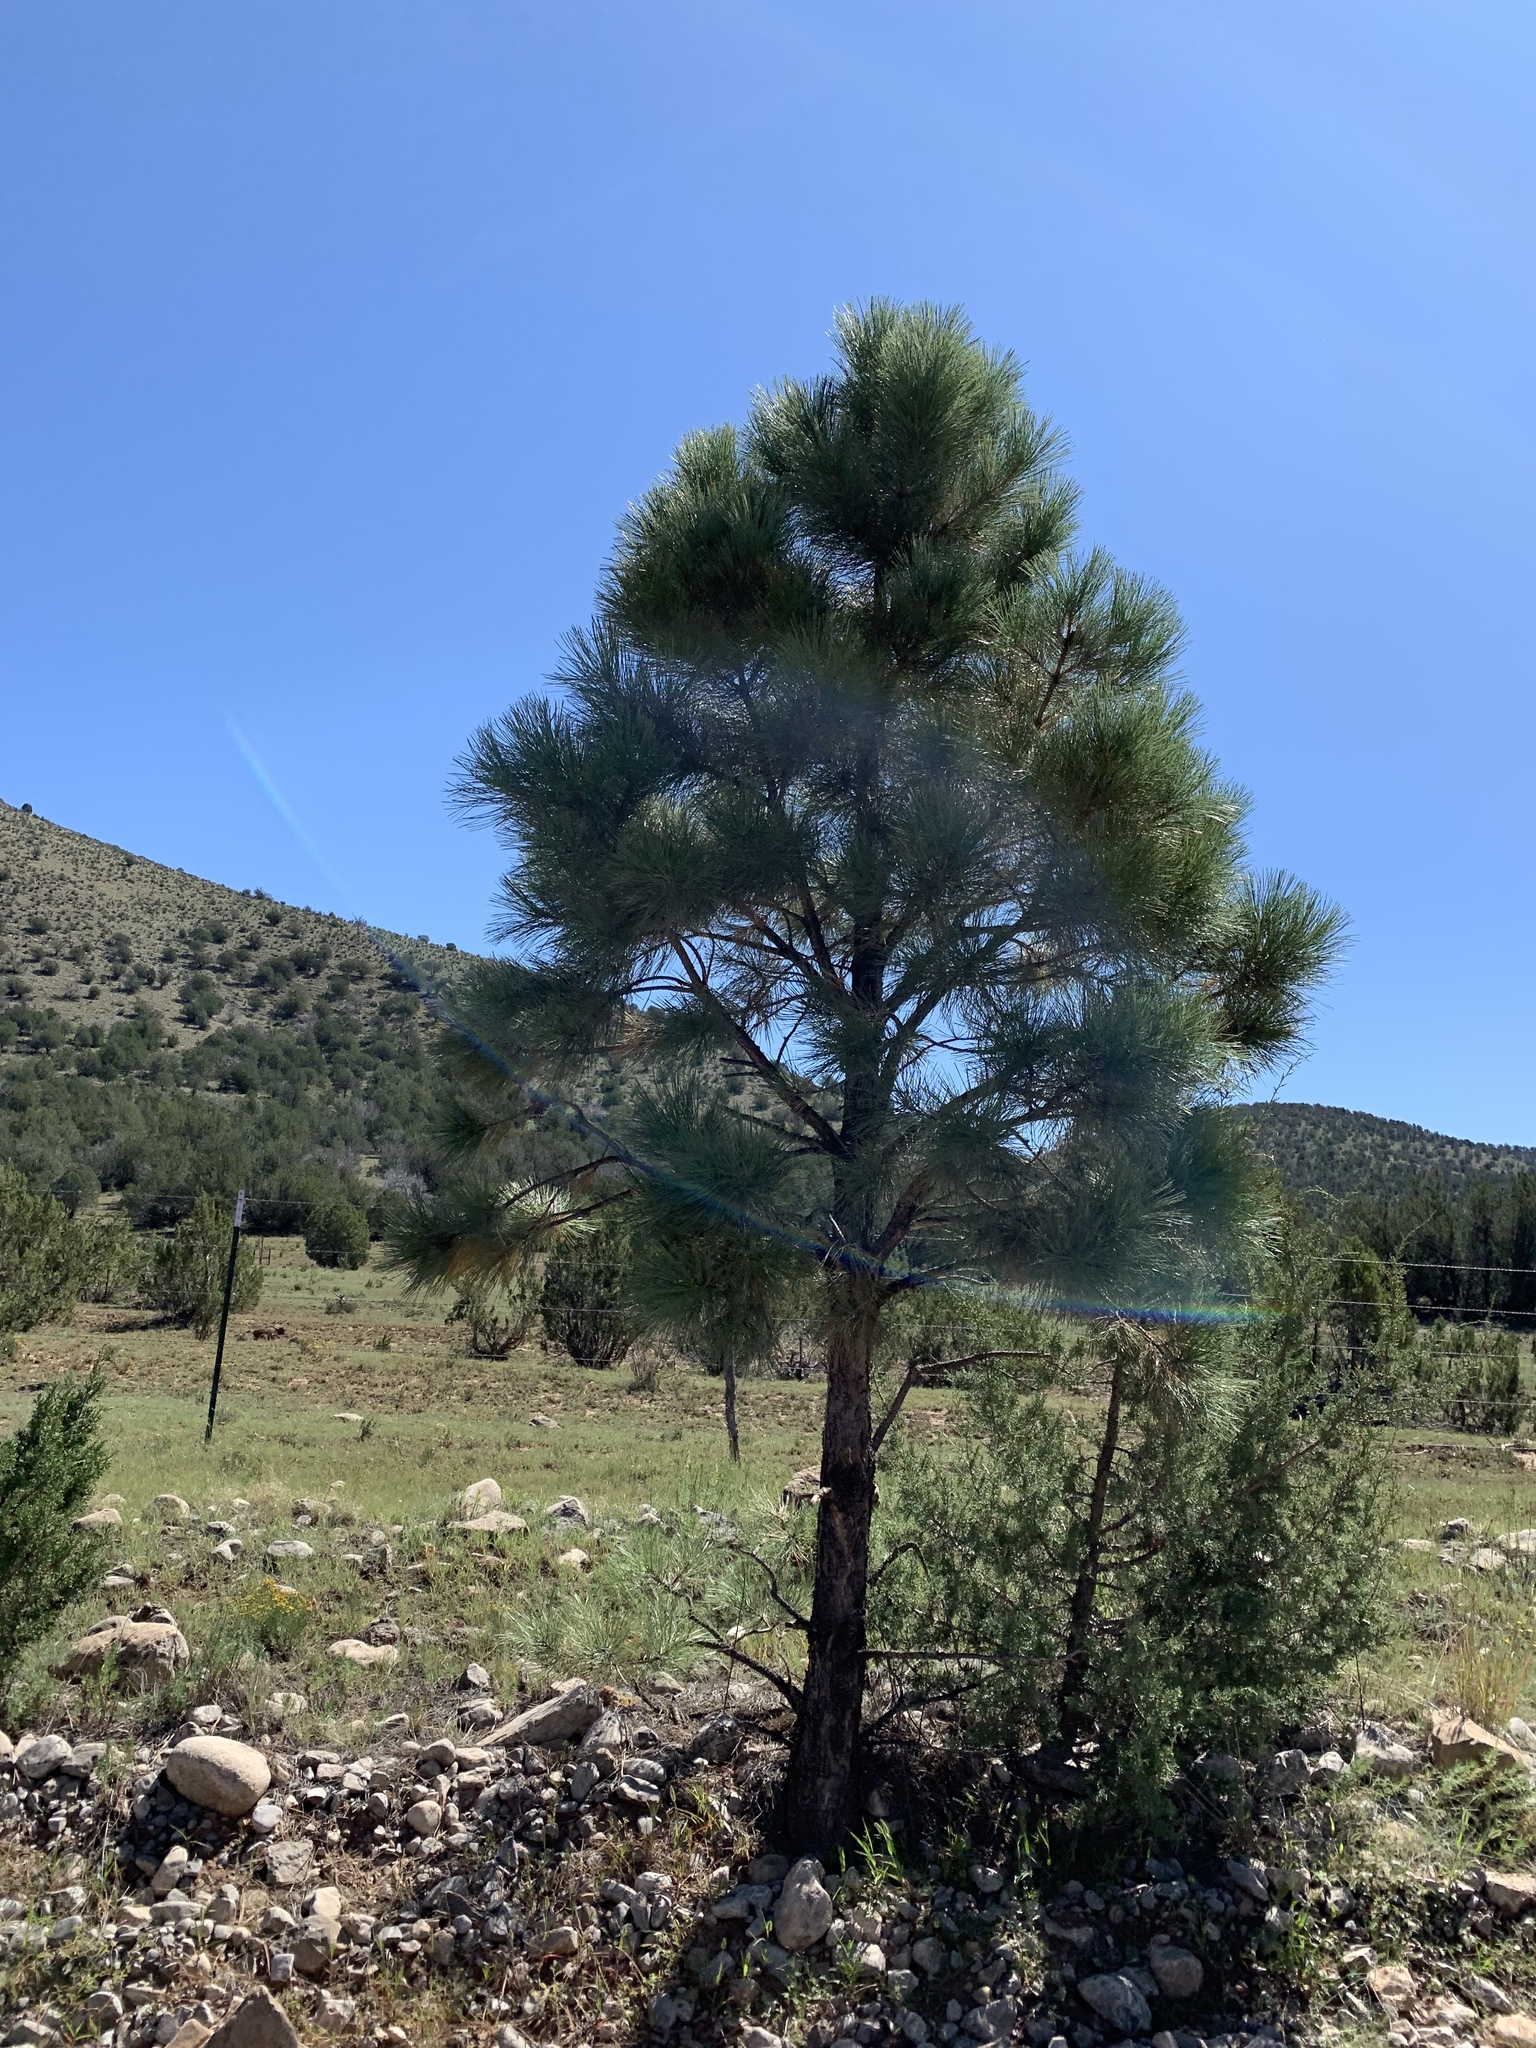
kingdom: Plantae
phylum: Tracheophyta
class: Pinopsida
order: Pinales
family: Pinaceae
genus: Pinus
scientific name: Pinus ponderosa
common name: Western yellow-pine
